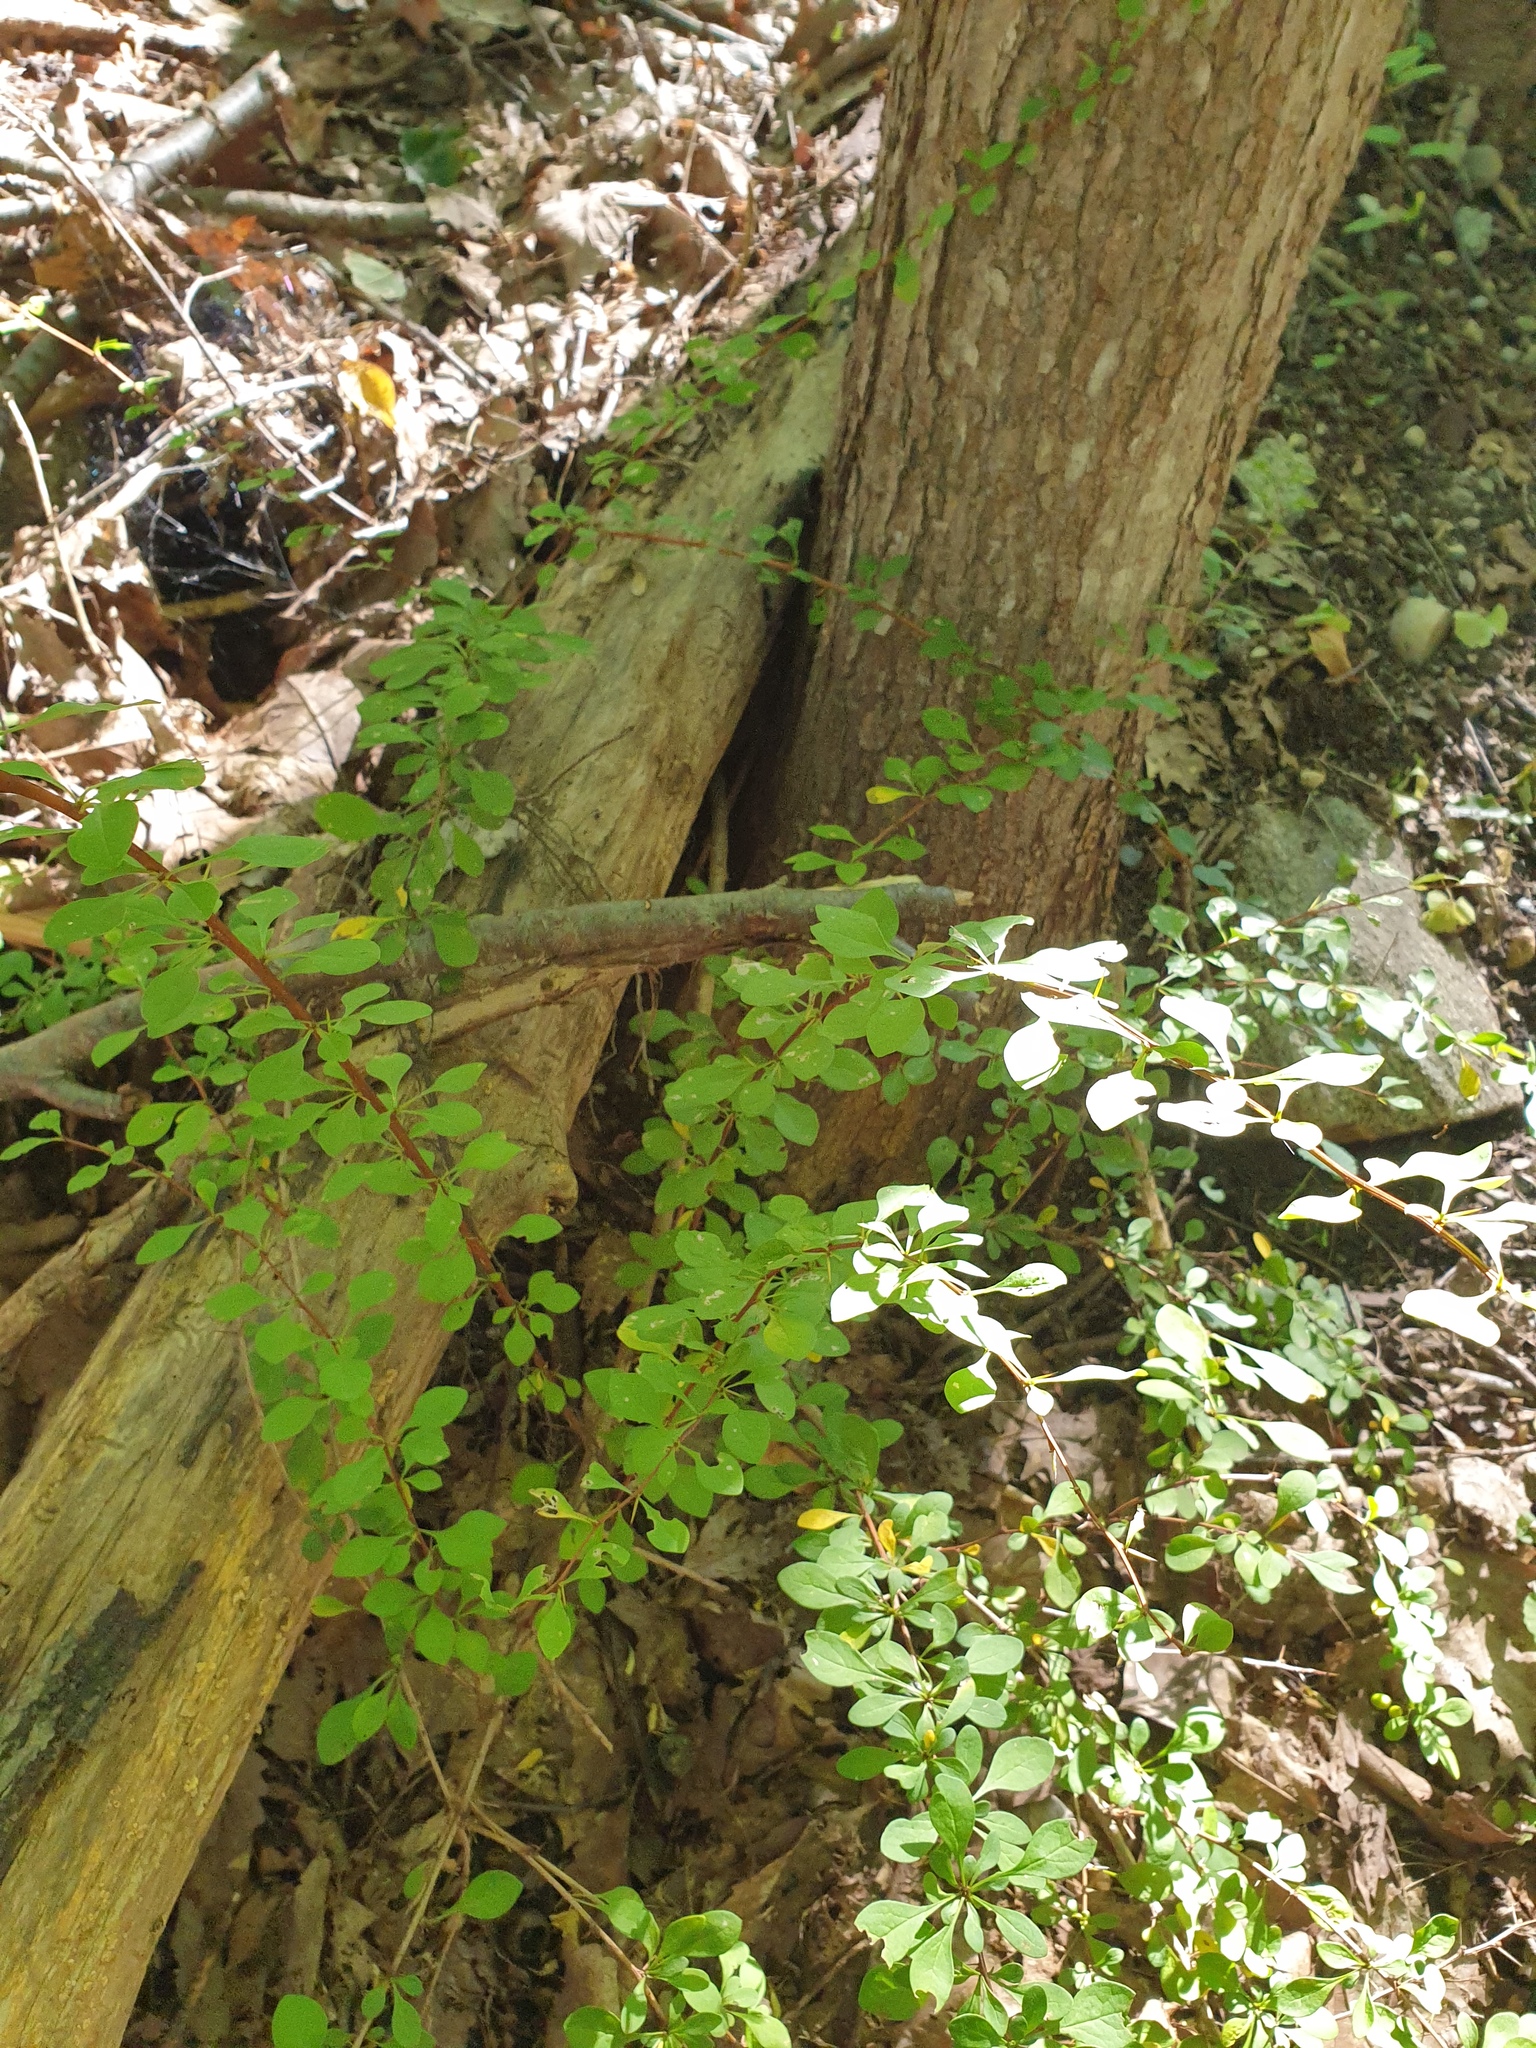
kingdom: Plantae
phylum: Tracheophyta
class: Magnoliopsida
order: Ranunculales
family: Berberidaceae
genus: Berberis
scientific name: Berberis thunbergii
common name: Japanese barberry
